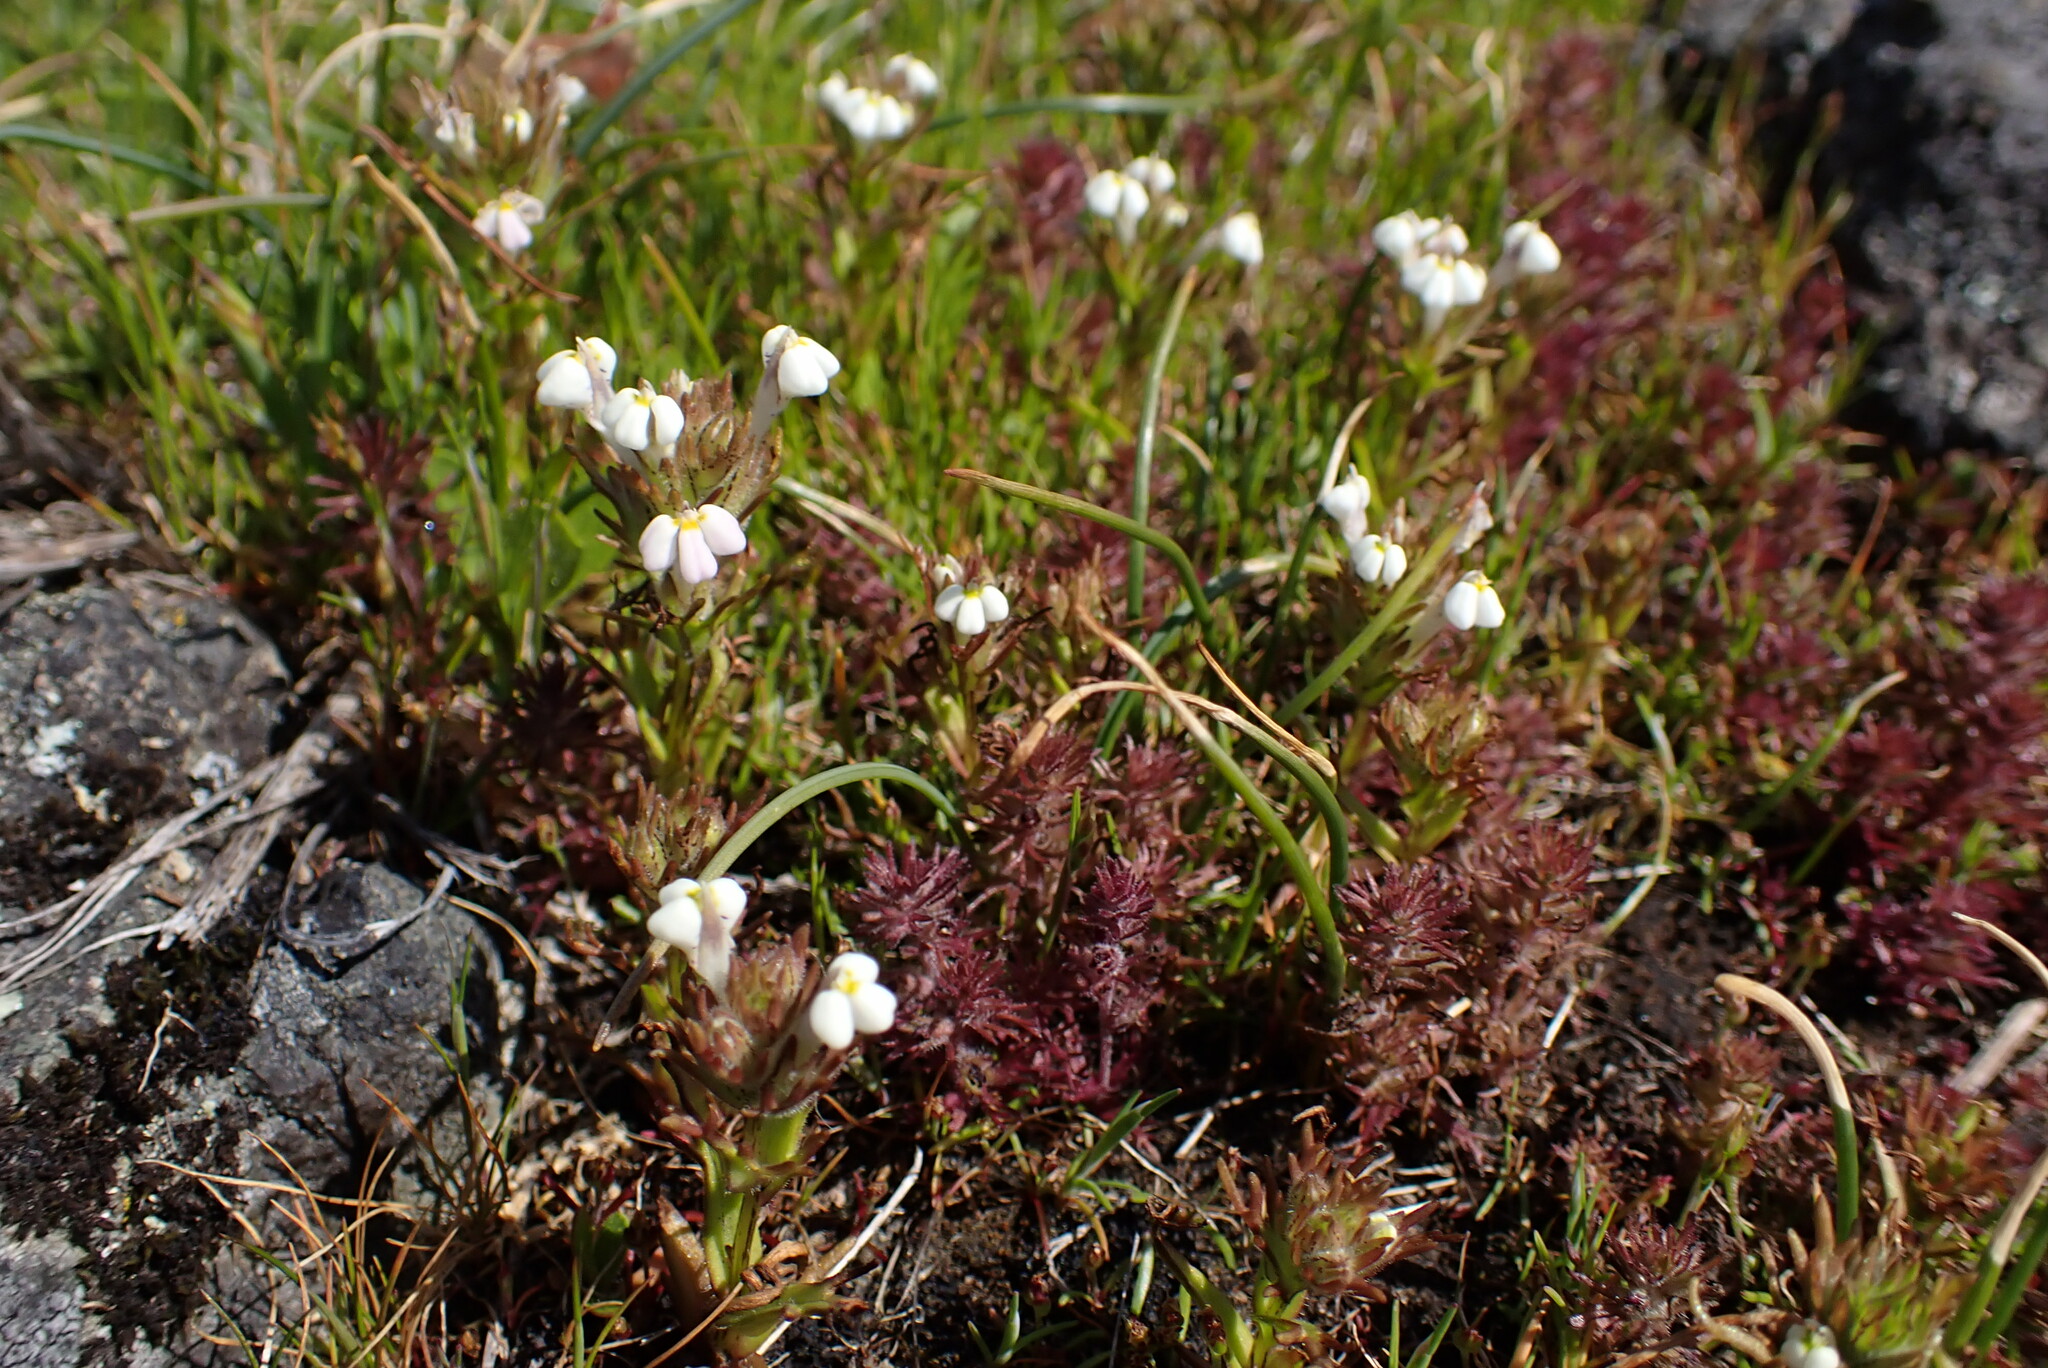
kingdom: Plantae
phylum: Tracheophyta
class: Magnoliopsida
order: Lamiales
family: Orobanchaceae
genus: Triphysaria
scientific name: Triphysaria versicolor
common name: Bearded false owl-clover
